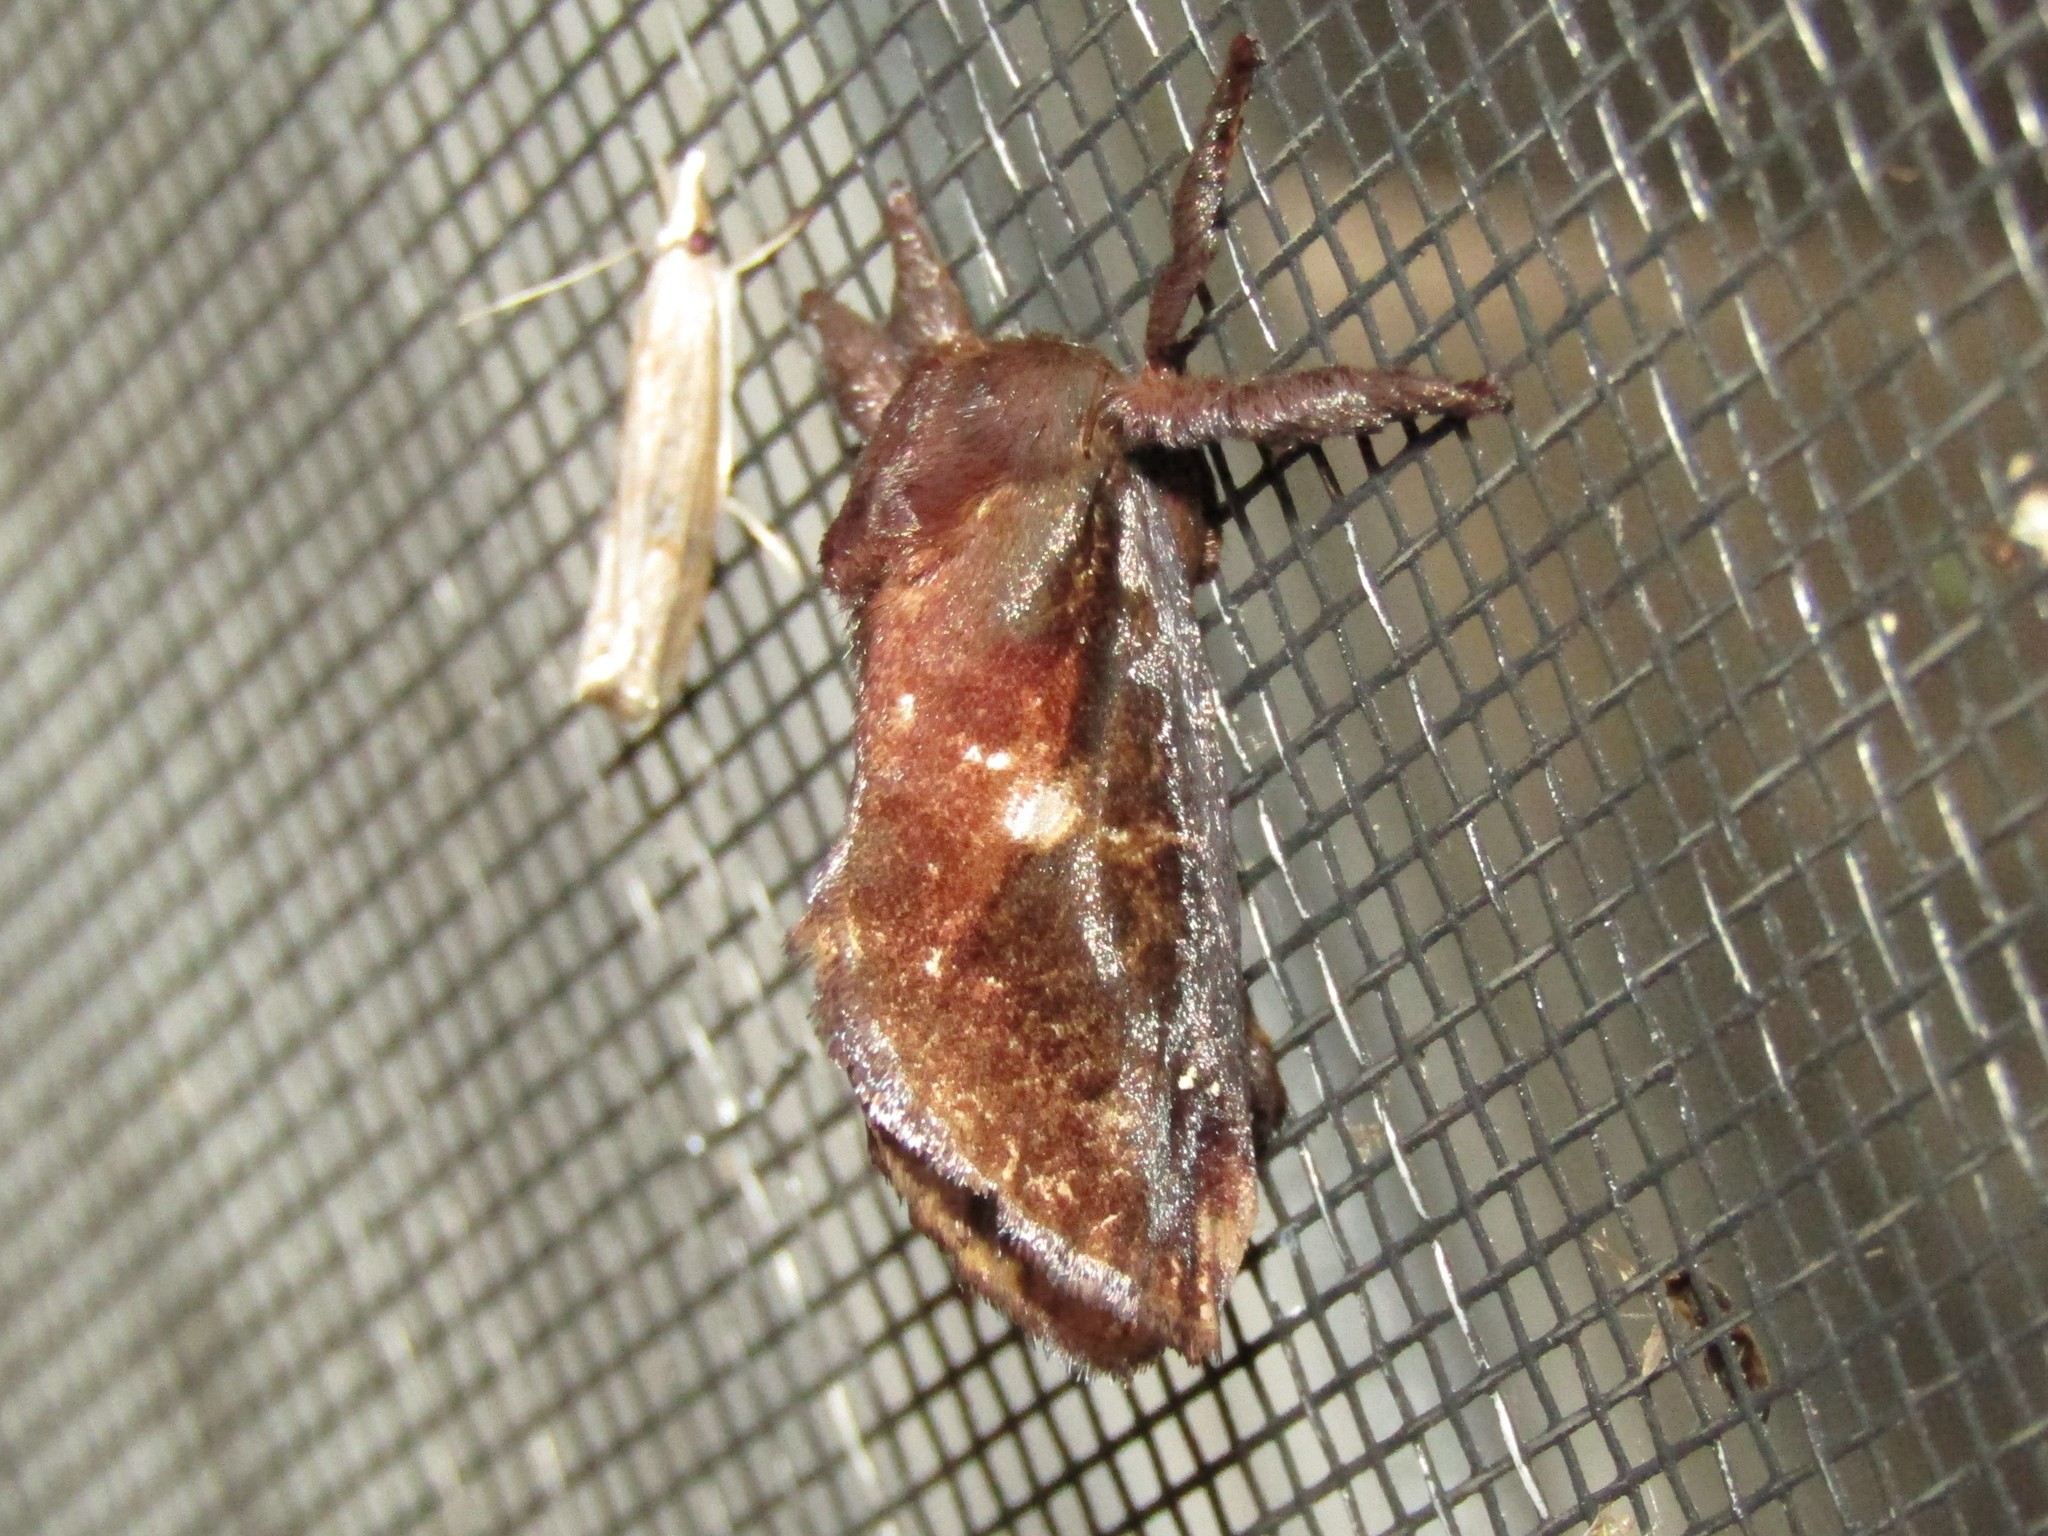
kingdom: Animalia
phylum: Arthropoda
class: Insecta
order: Lepidoptera
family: Limacodidae
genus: Acharia
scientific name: Acharia stimulea
